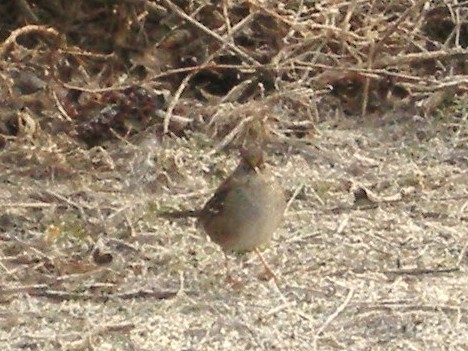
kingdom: Animalia
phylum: Chordata
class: Aves
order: Passeriformes
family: Passerellidae
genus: Zonotrichia
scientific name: Zonotrichia atricapilla
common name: Golden-crowned sparrow
